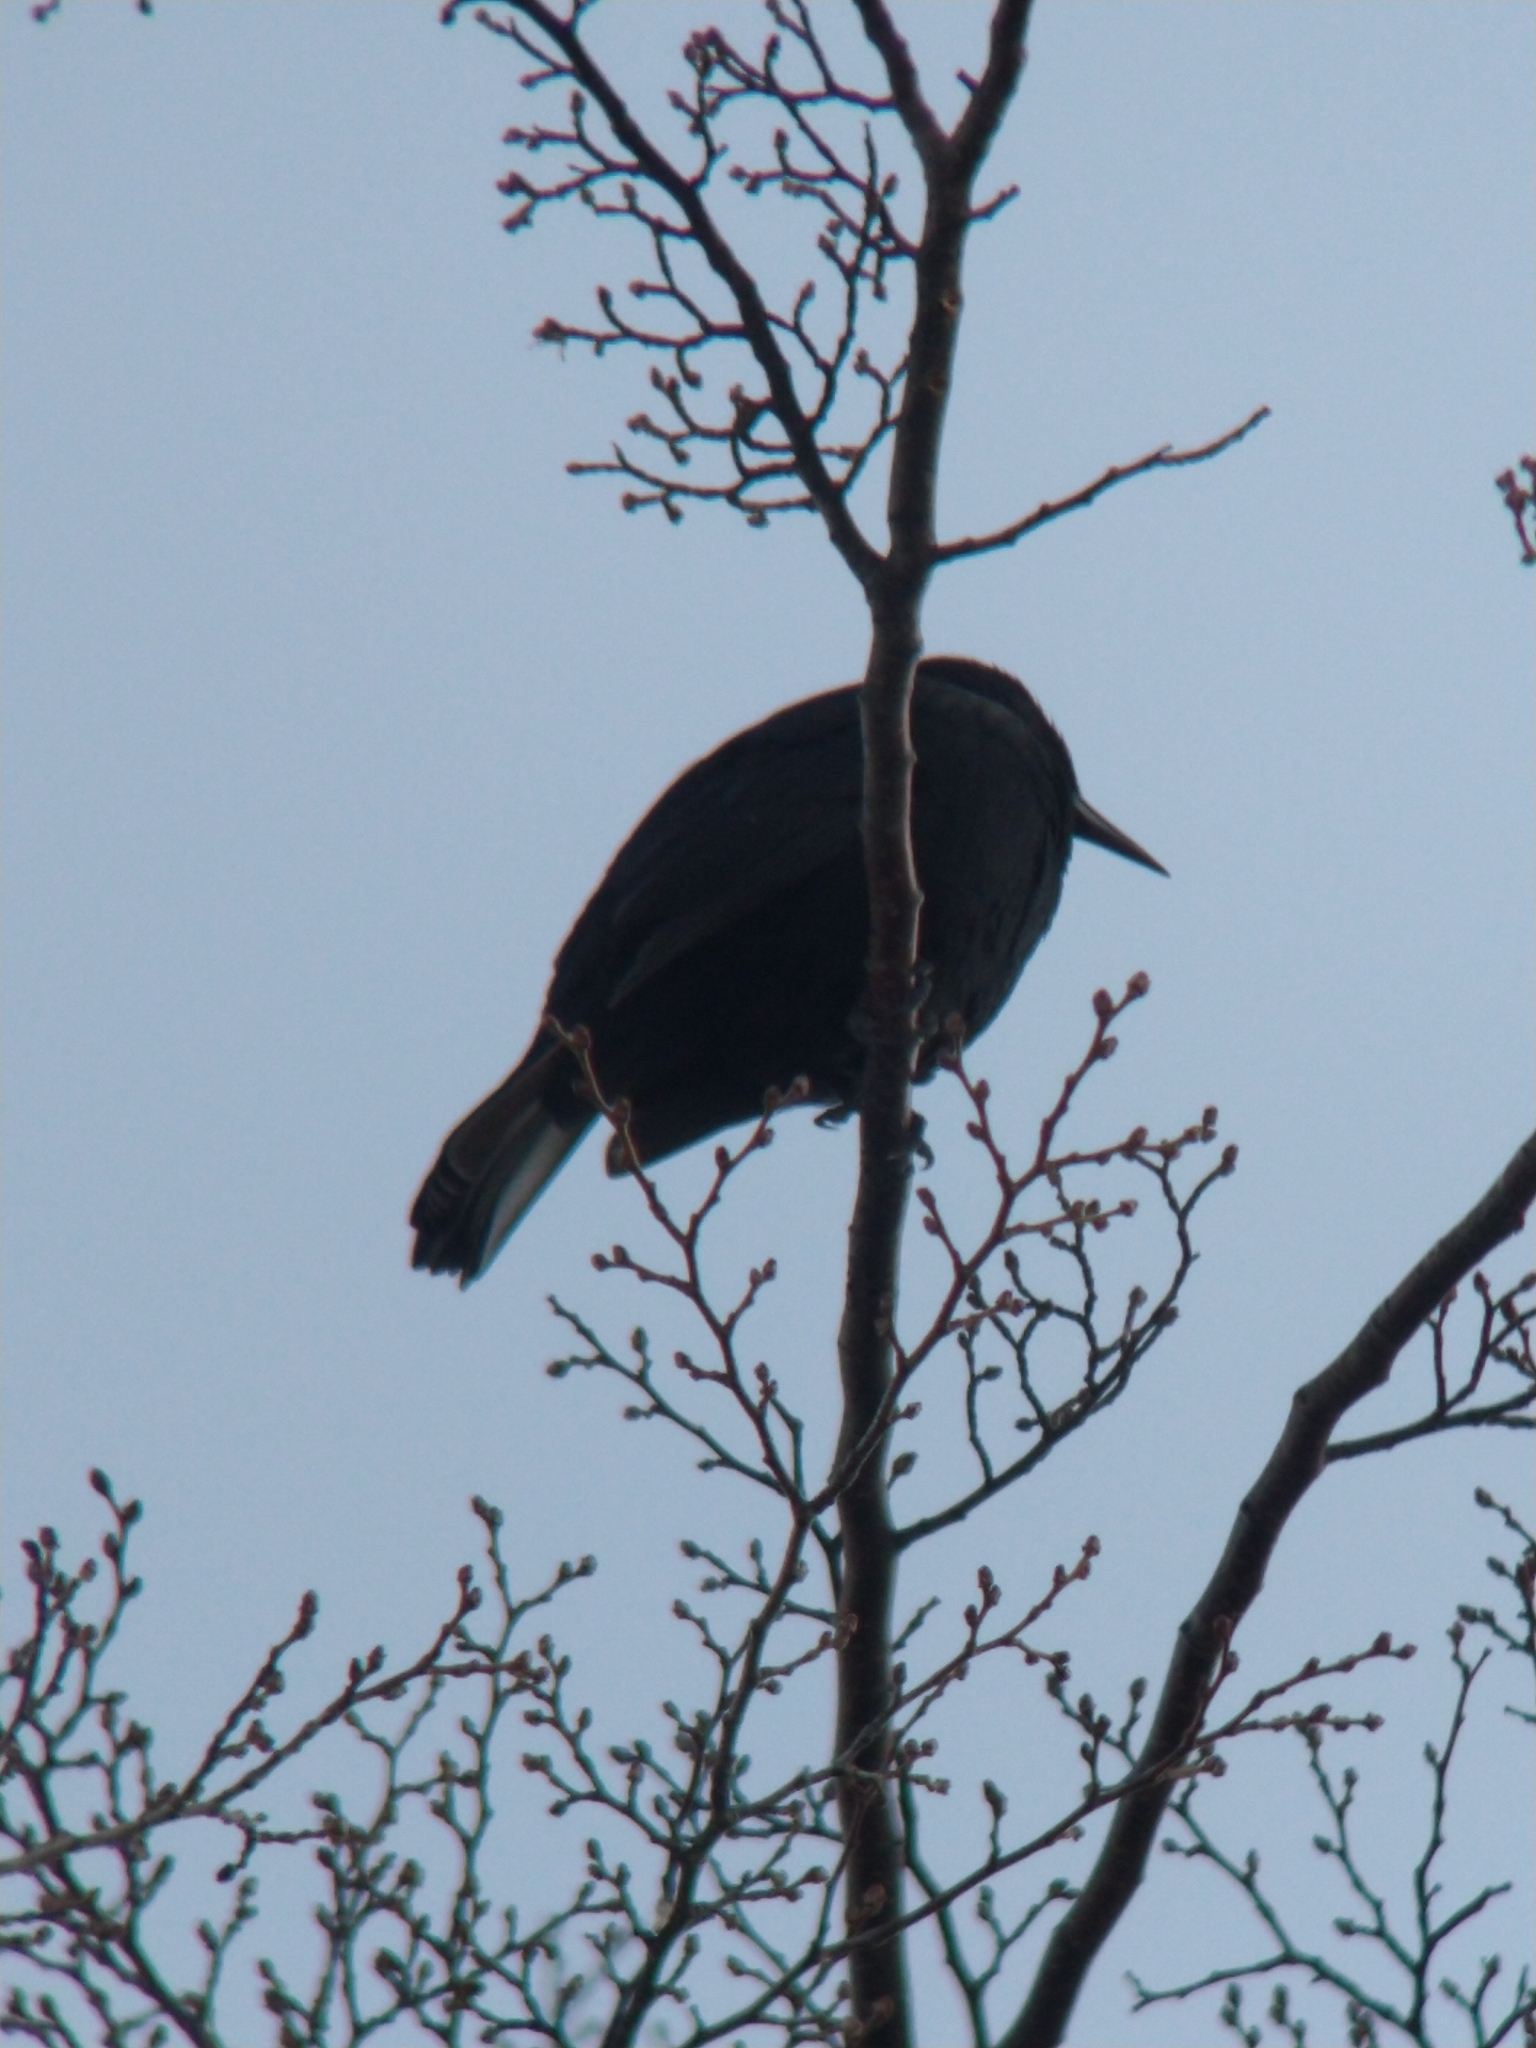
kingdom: Animalia
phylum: Chordata
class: Aves
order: Passeriformes
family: Icteridae
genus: Curaeus
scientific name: Curaeus curaeus
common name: Austral blackbird
